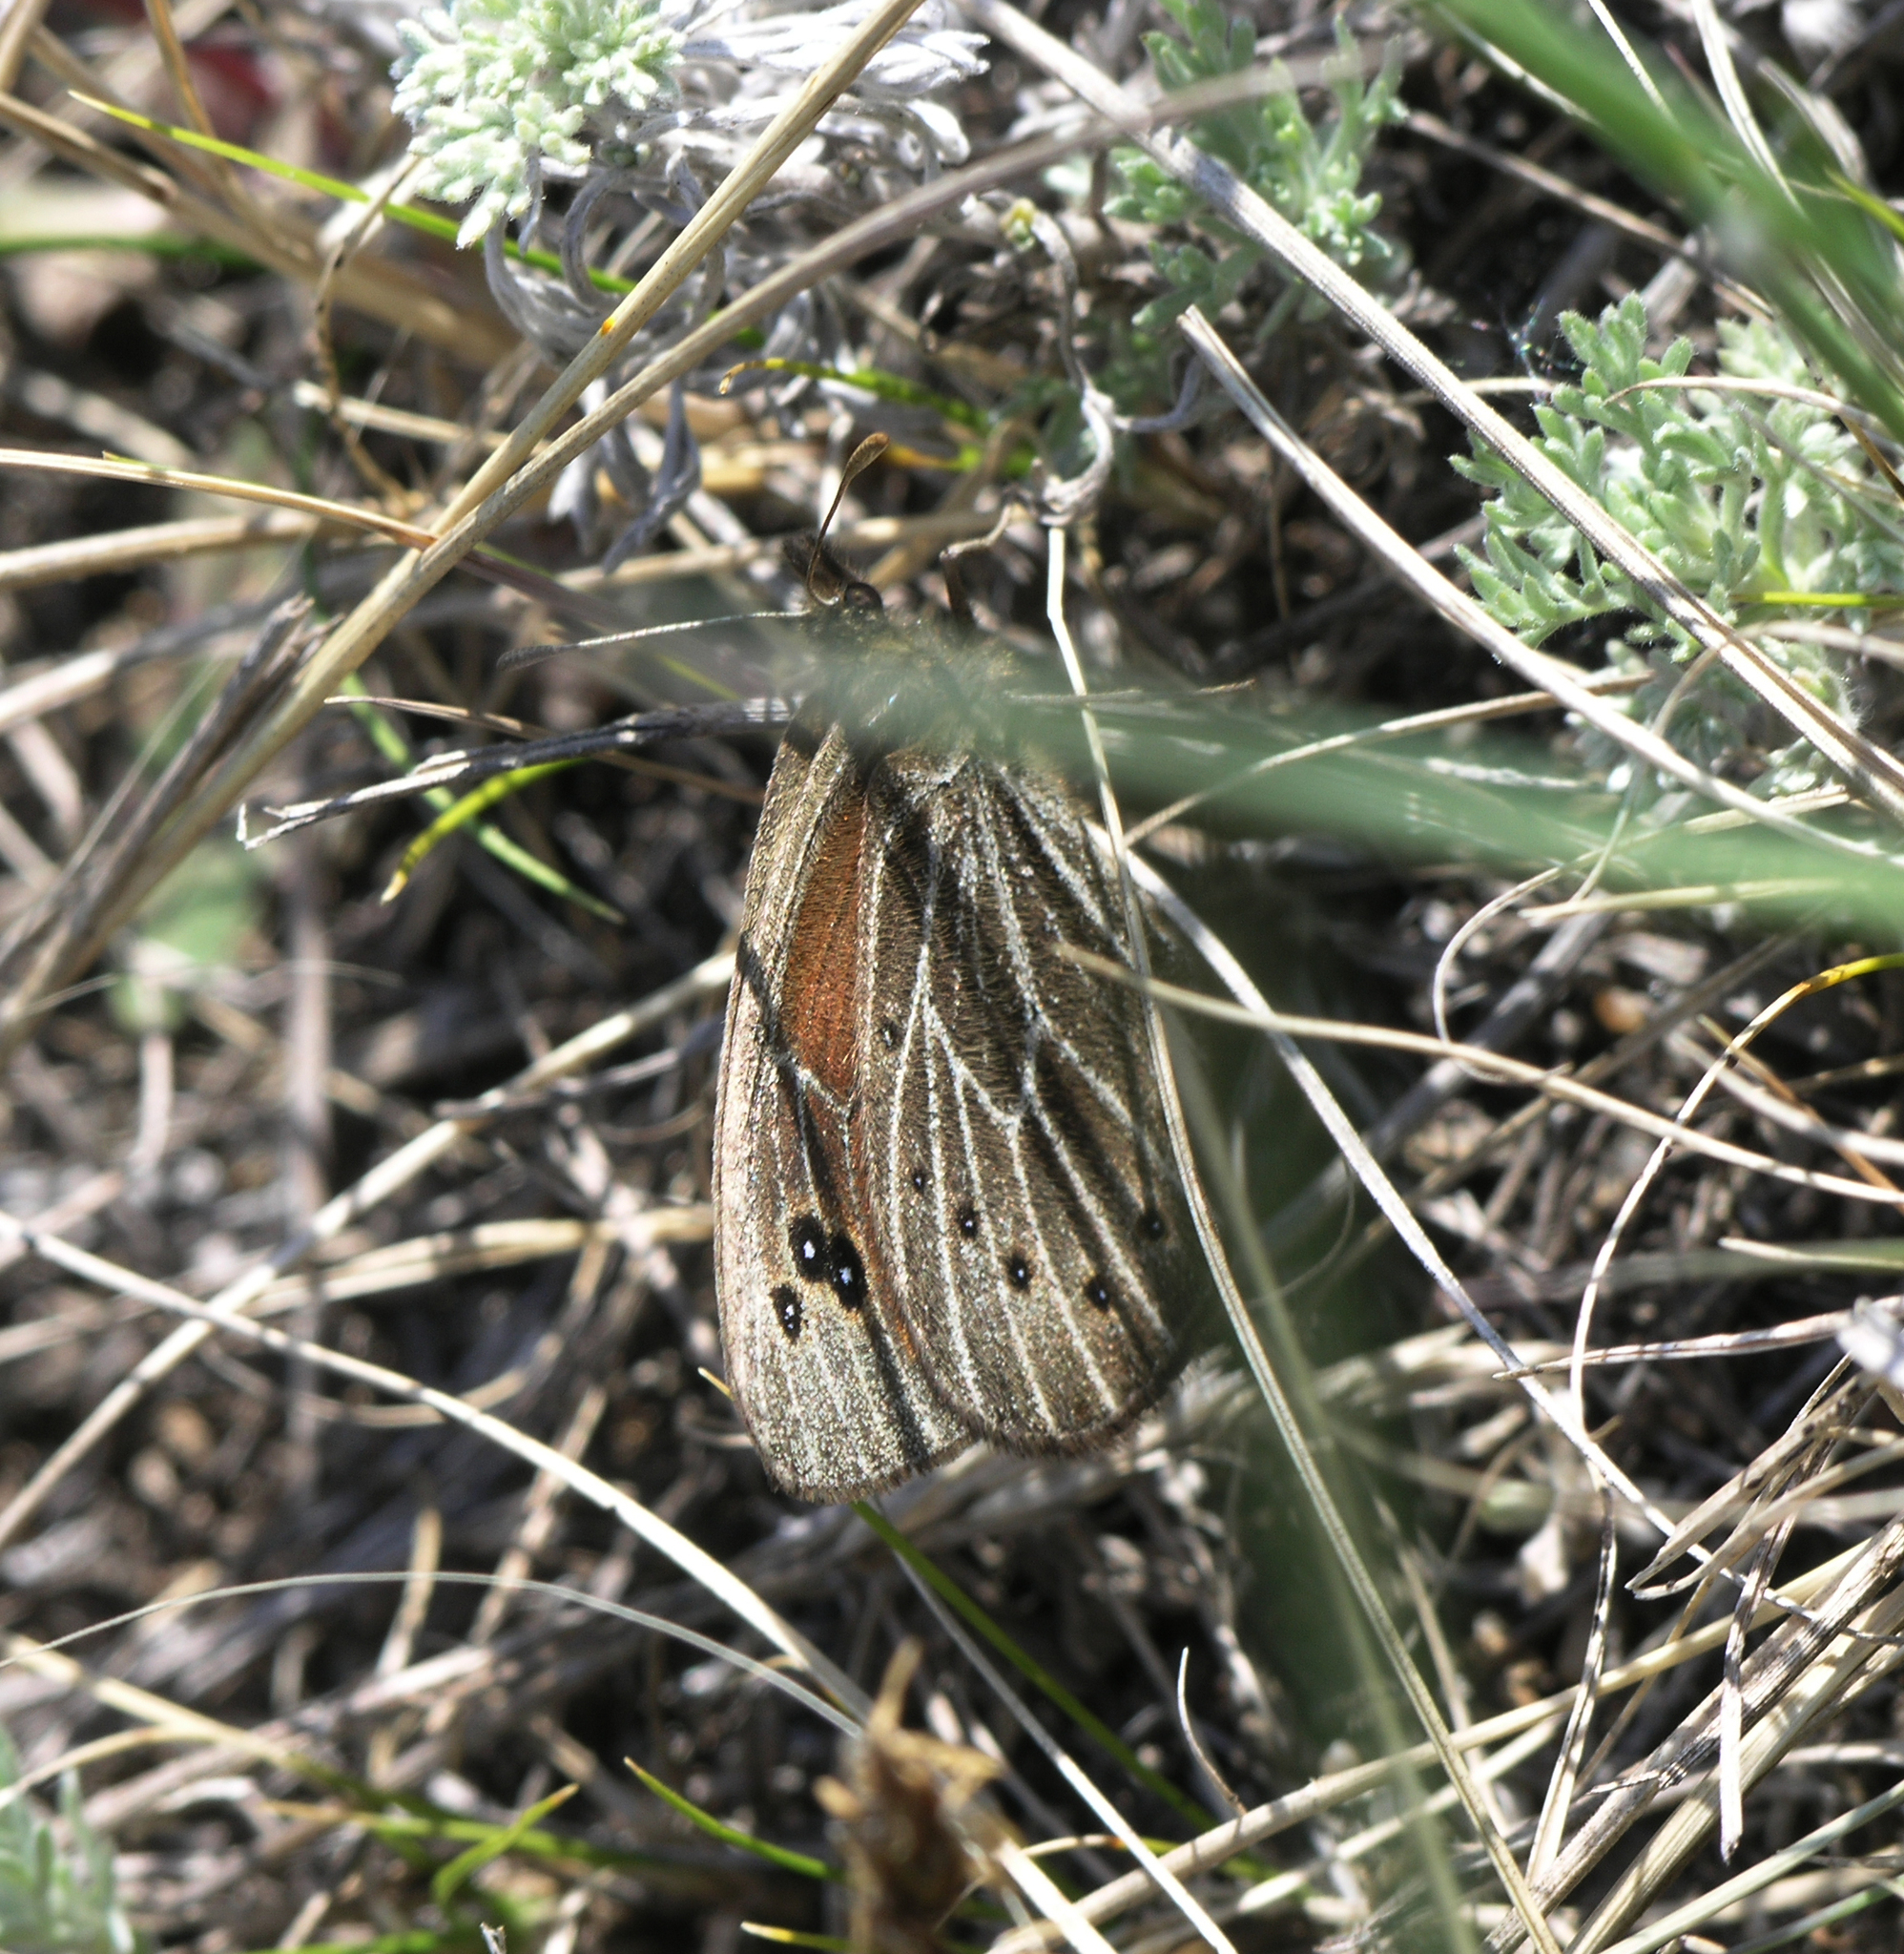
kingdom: Animalia
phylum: Arthropoda
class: Insecta
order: Lepidoptera
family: Nymphalidae
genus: Proterebia
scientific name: Proterebia afra
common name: Dalmatian ringlet
